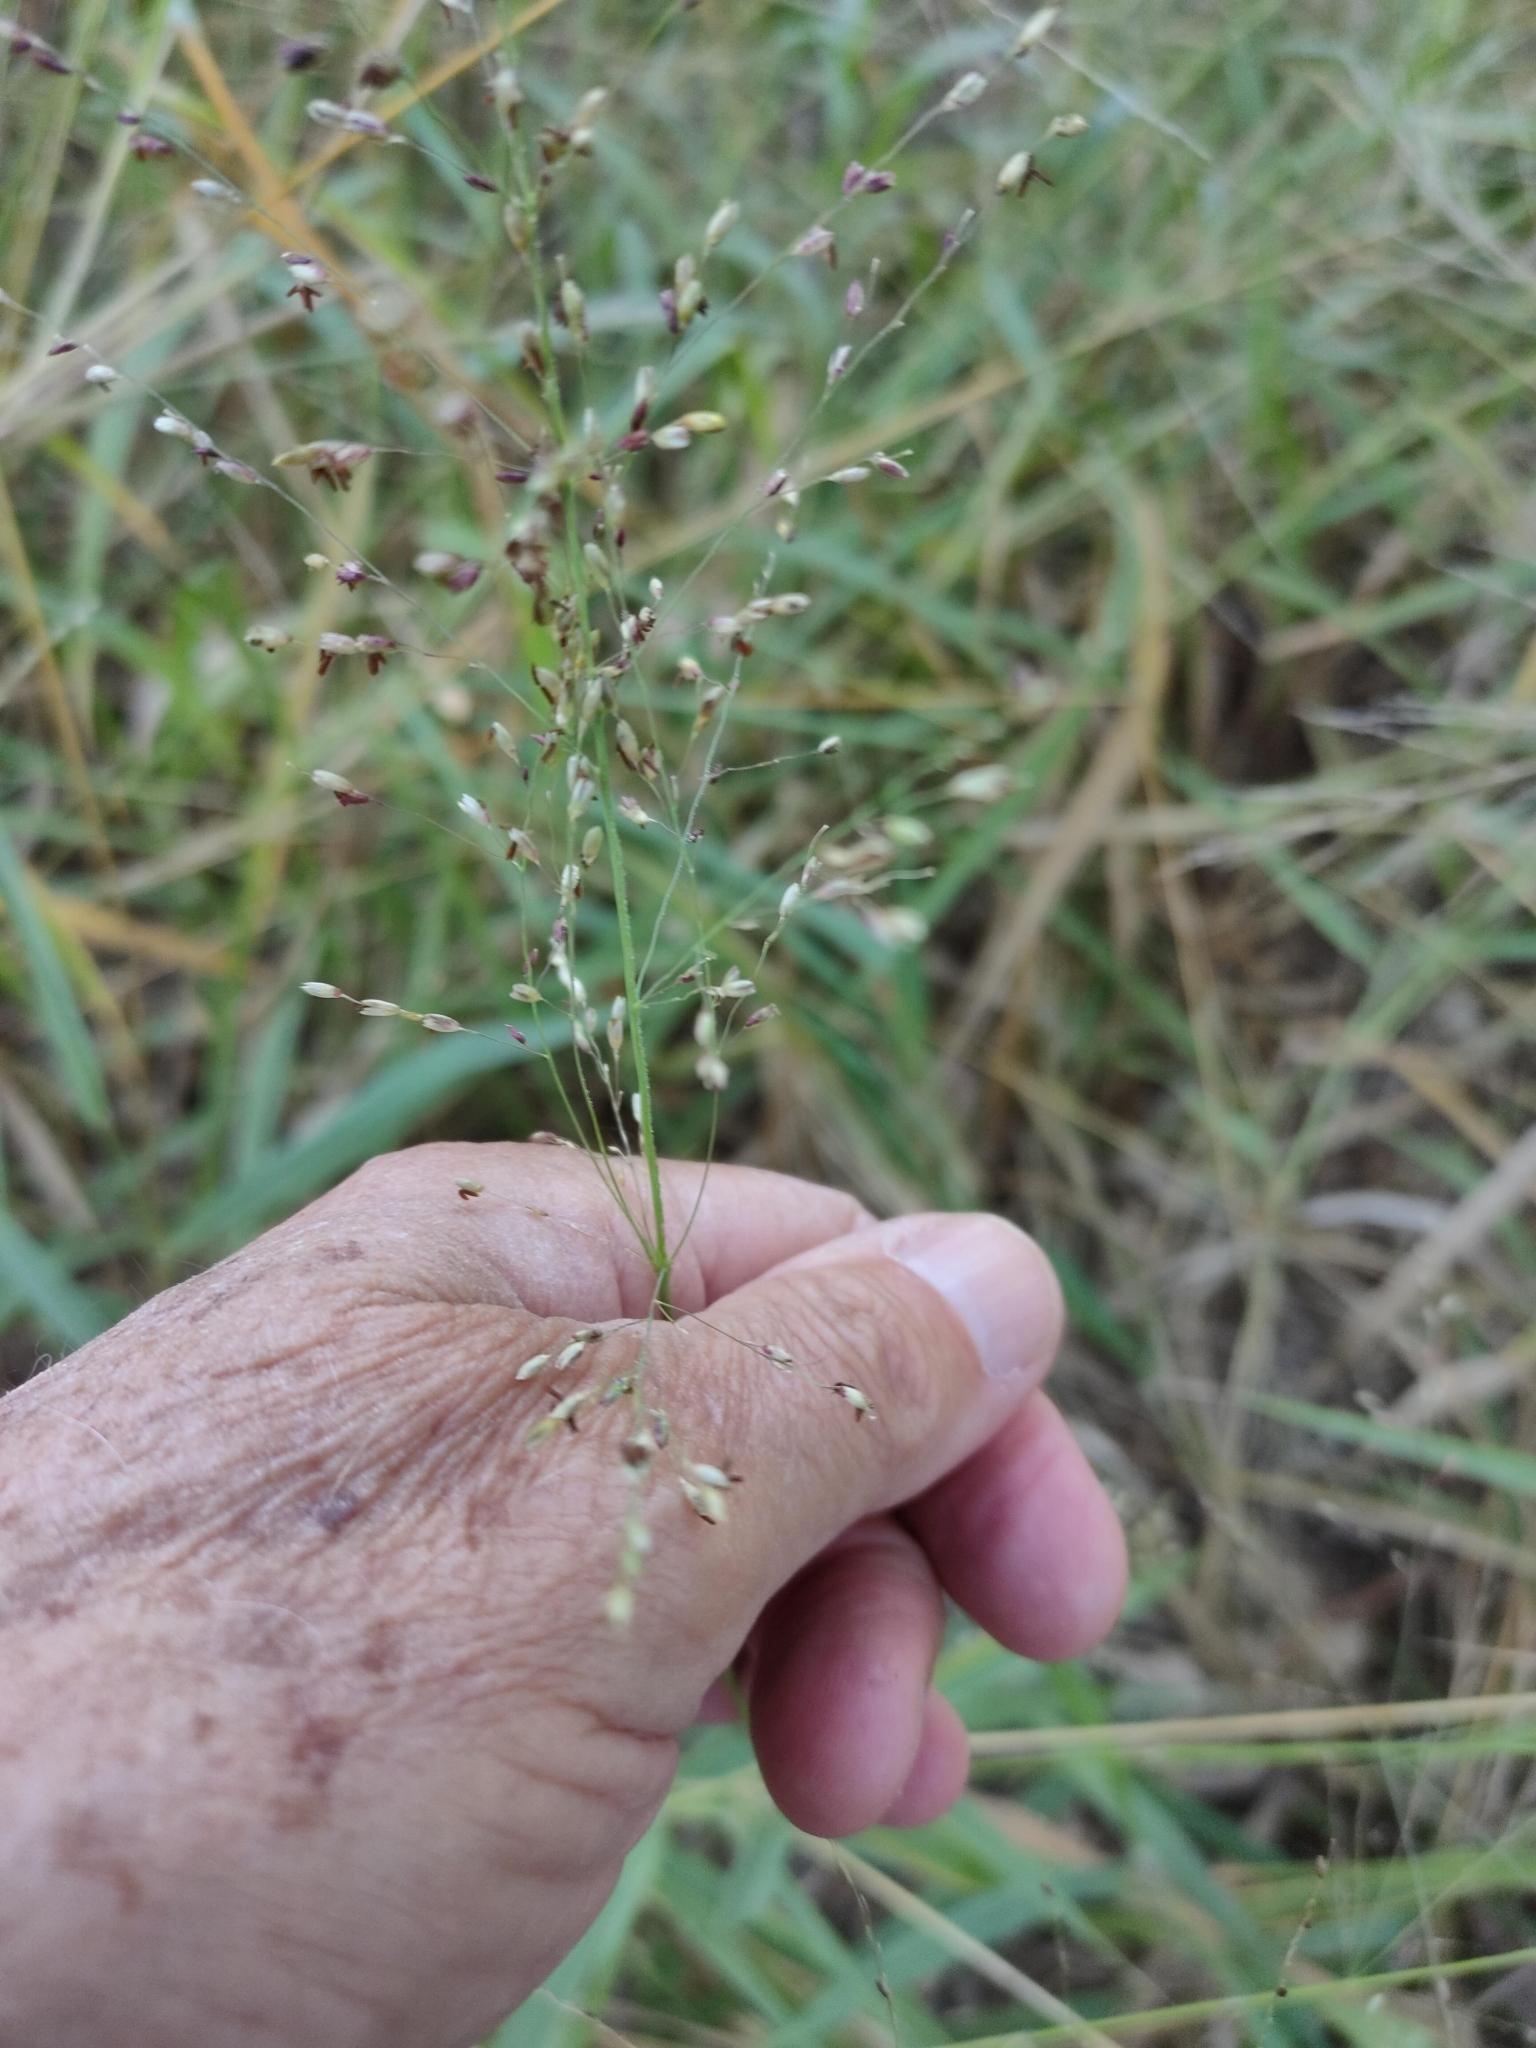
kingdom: Plantae
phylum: Tracheophyta
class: Liliopsida
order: Poales
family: Poaceae
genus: Megathyrsus
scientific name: Megathyrsus maximus
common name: Guineagrass
